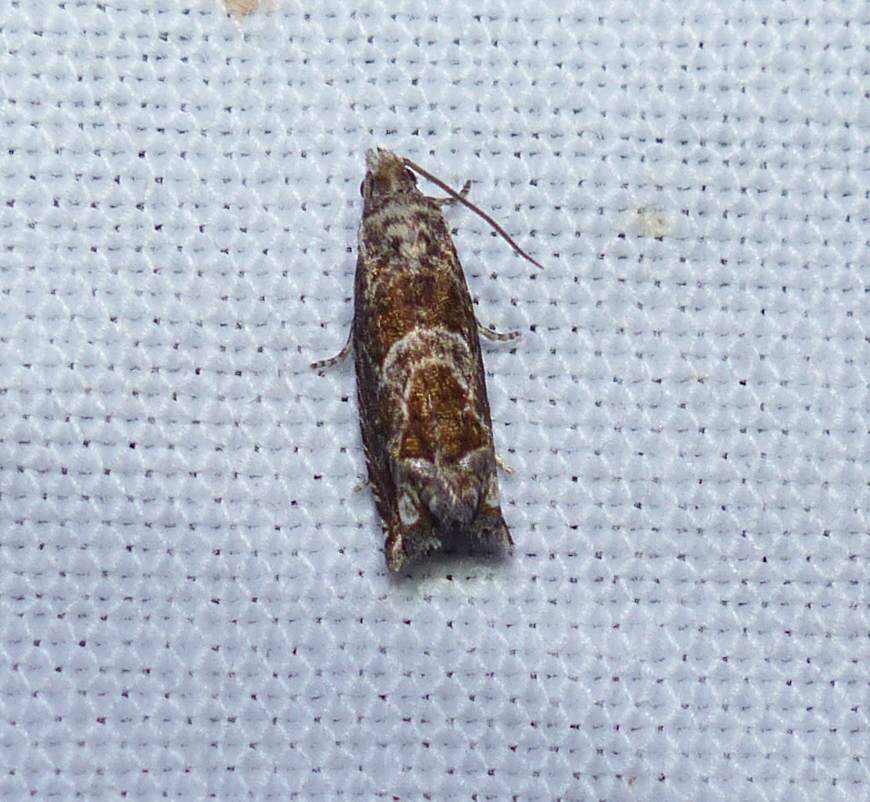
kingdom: Animalia
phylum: Arthropoda
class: Insecta
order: Lepidoptera
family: Tortricidae
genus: Sonia
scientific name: Sonia canadana
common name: Canadian sonia moth
